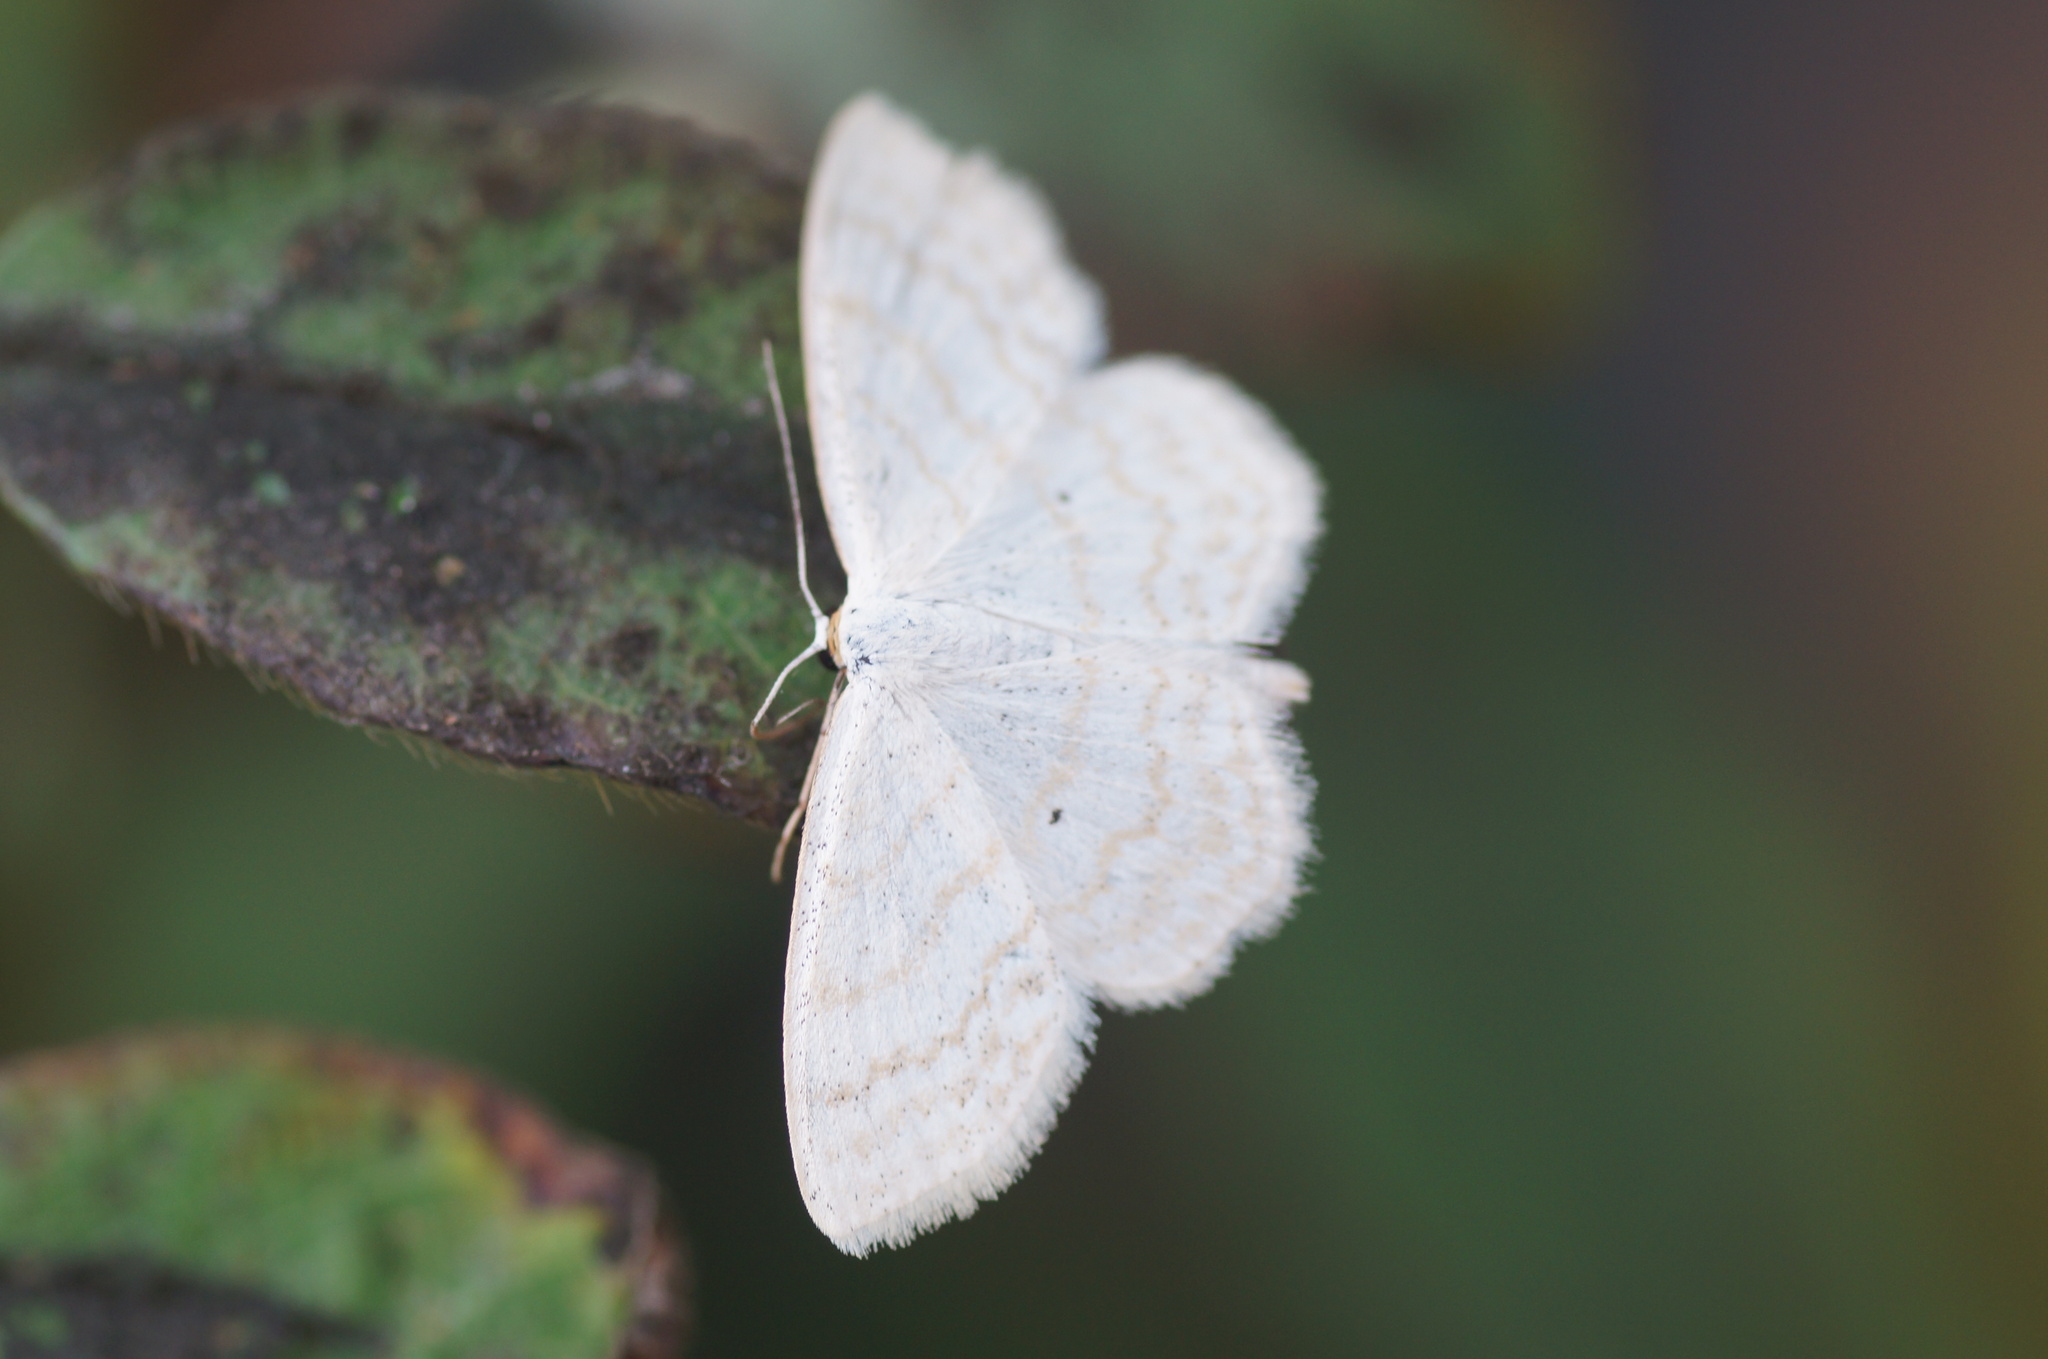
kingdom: Animalia
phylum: Arthropoda
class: Insecta
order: Lepidoptera
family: Geometridae
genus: Scopula
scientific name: Scopula immutata
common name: Lesser cream wave
